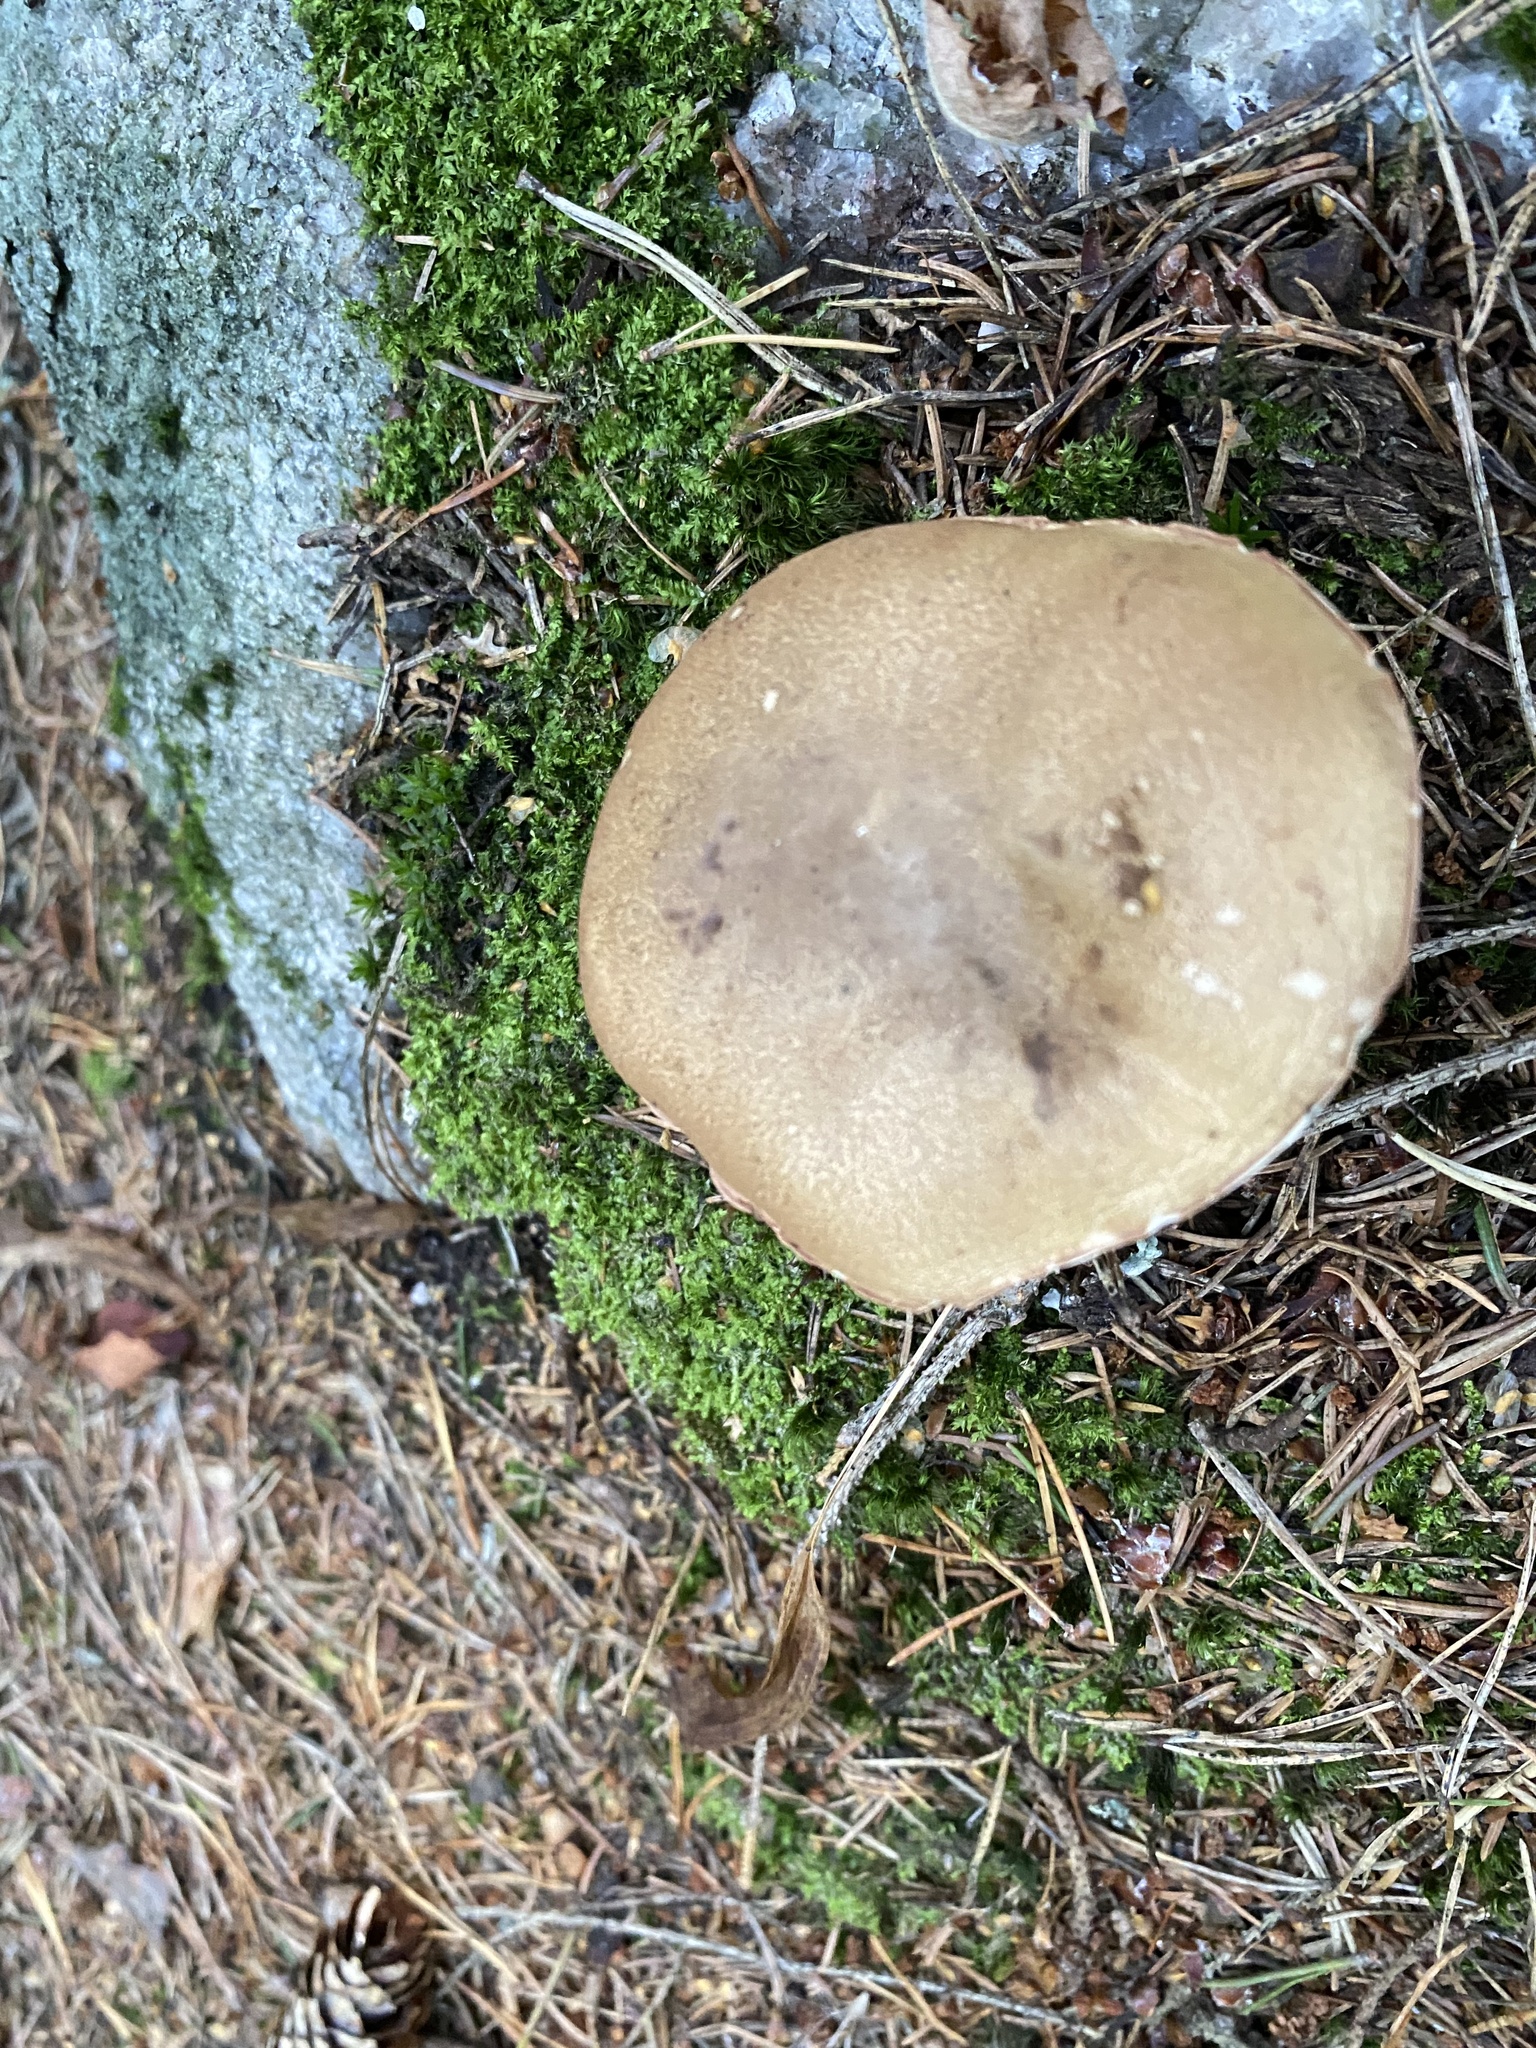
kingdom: Fungi
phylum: Basidiomycota
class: Agaricomycetes
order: Boletales
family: Boletaceae
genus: Tylopilus
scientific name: Tylopilus felleus
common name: Bitter bolete
